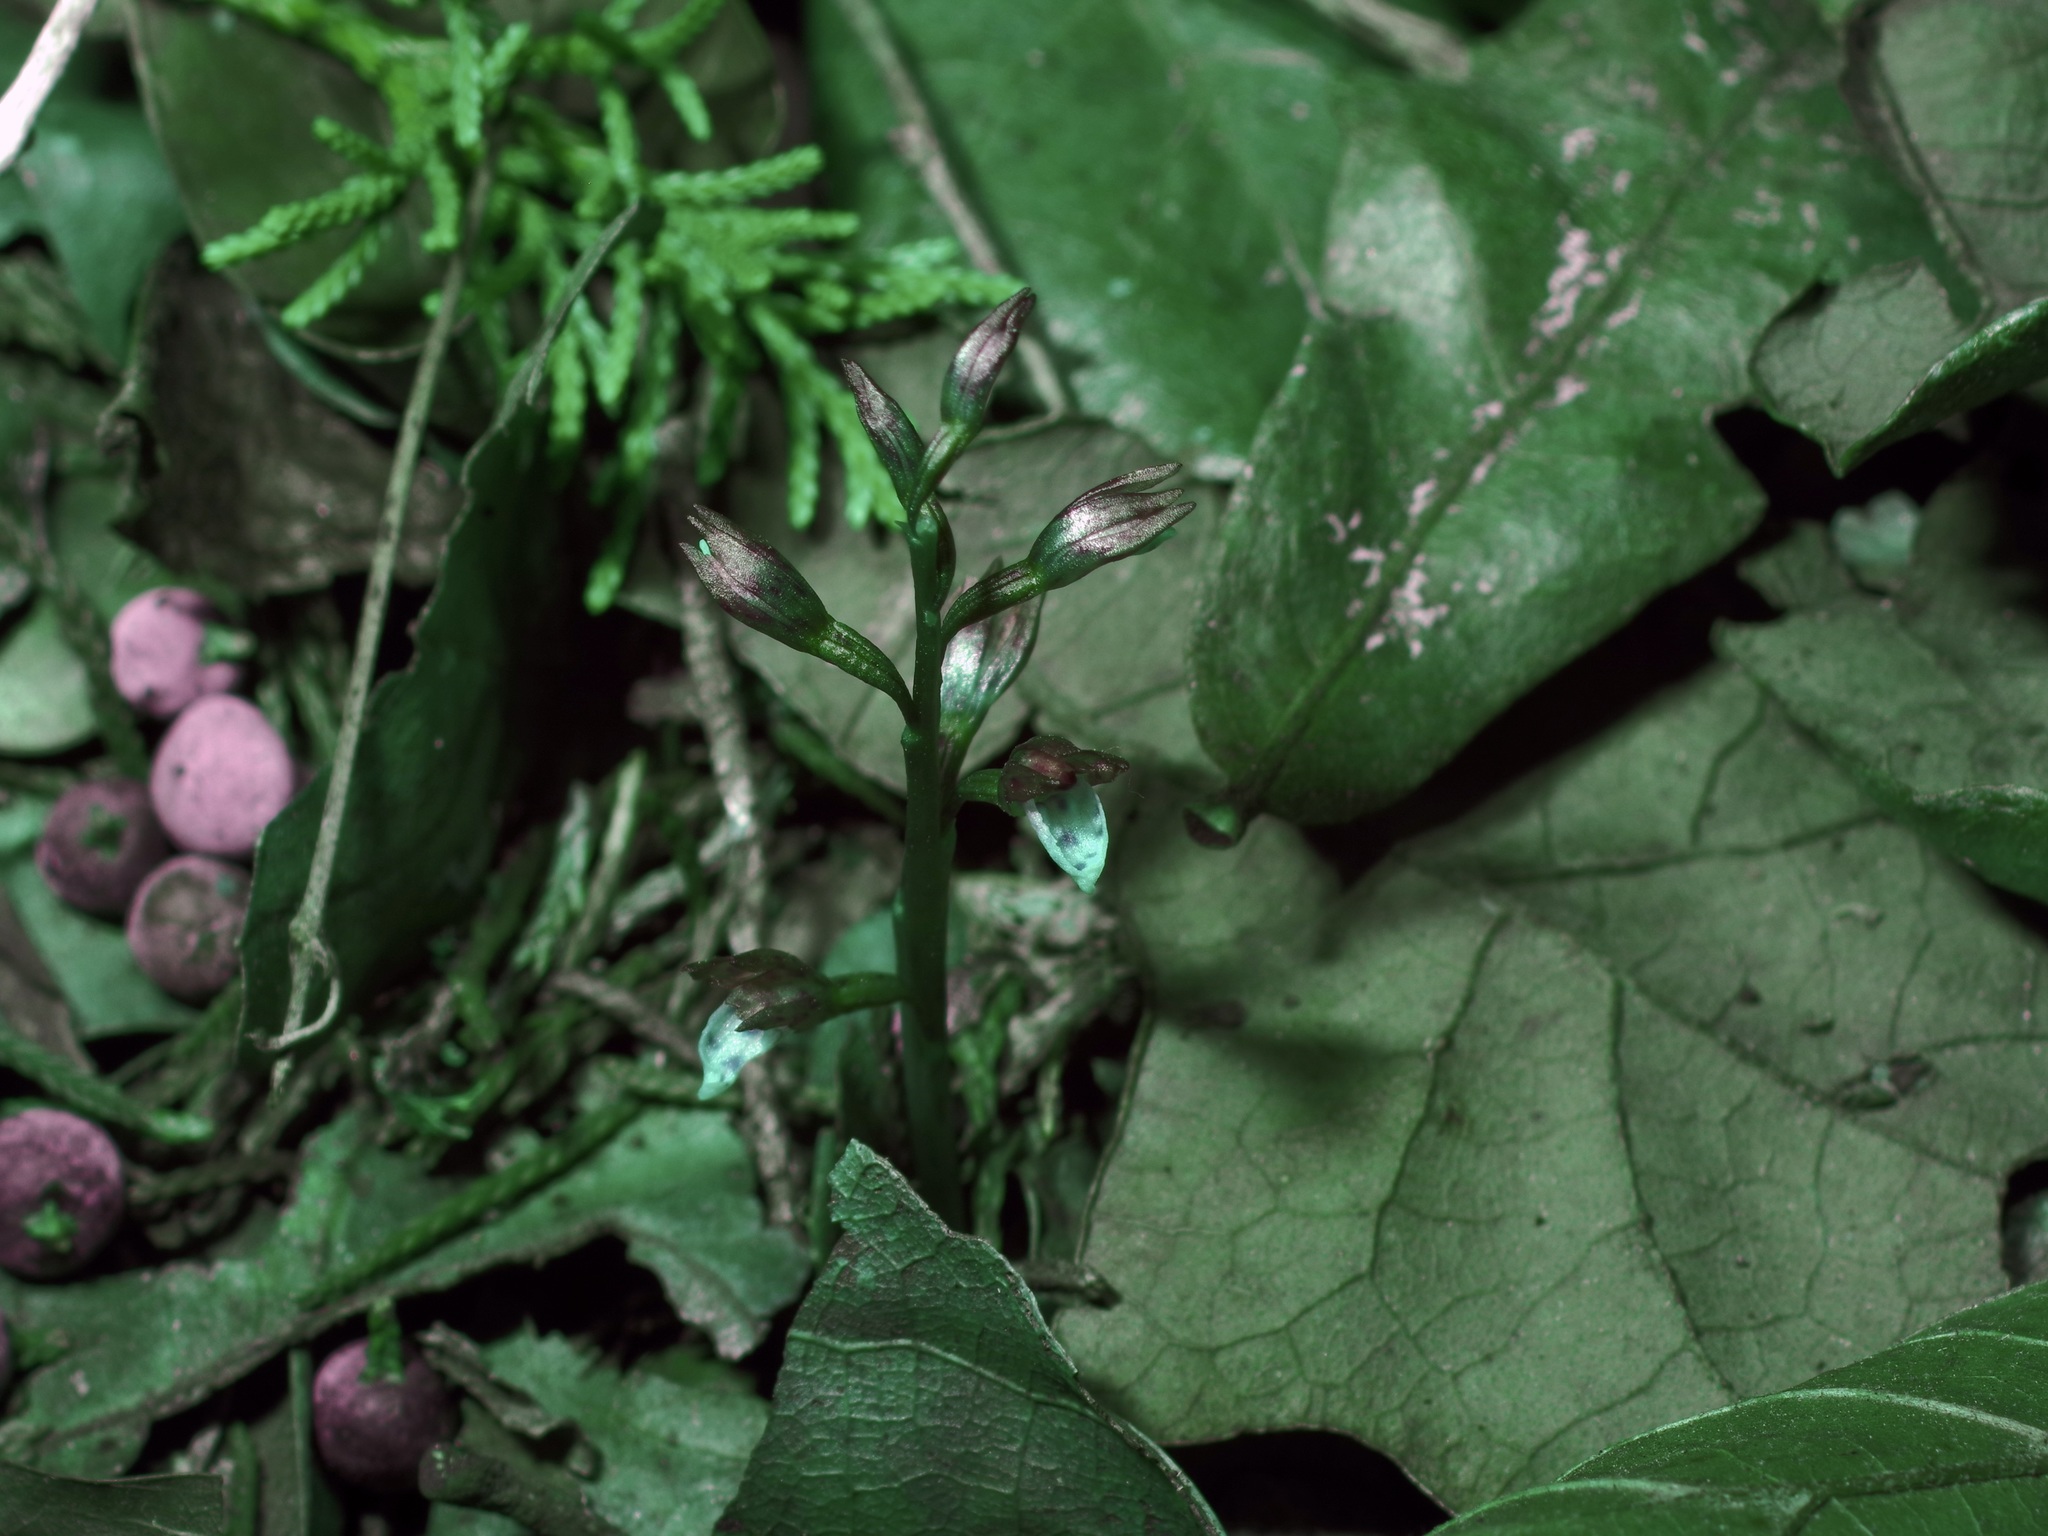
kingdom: Plantae
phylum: Tracheophyta
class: Liliopsida
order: Asparagales
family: Orchidaceae
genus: Corallorhiza
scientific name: Corallorhiza wisteriana
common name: Spring coralroot
